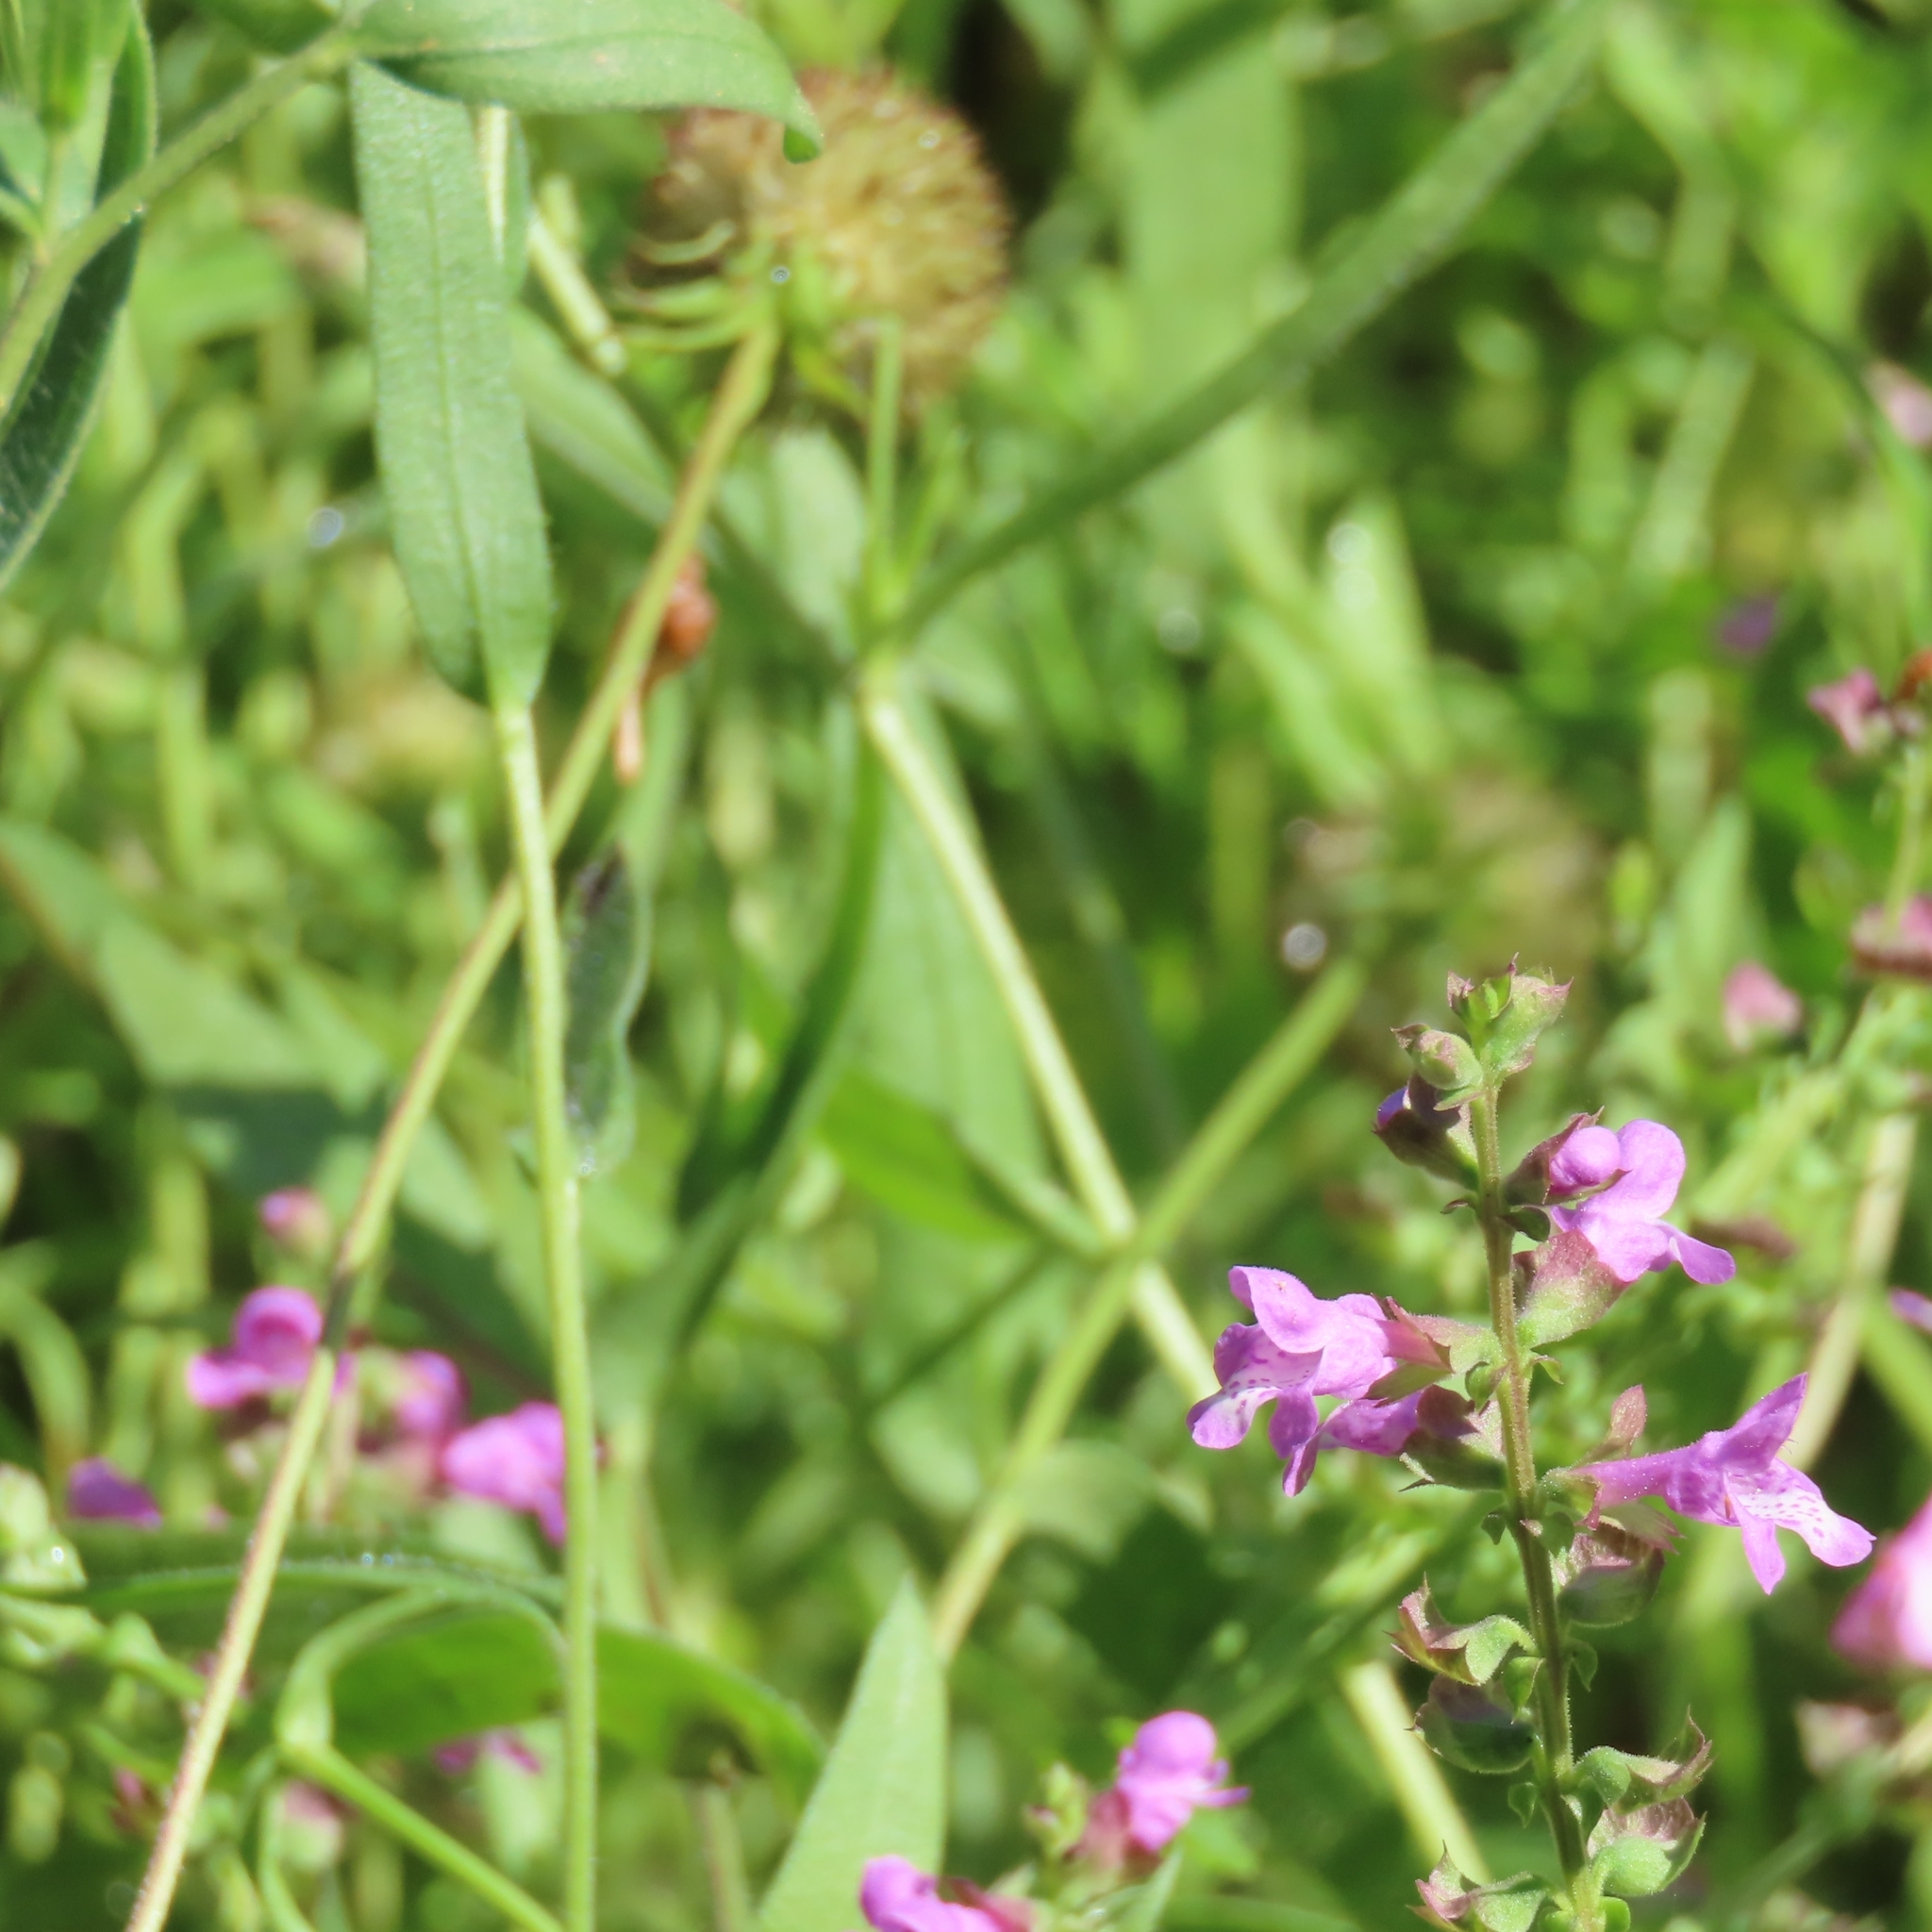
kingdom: Plantae
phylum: Tracheophyta
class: Magnoliopsida
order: Lamiales
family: Lamiaceae
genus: Warnockia
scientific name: Warnockia scutellarioides
